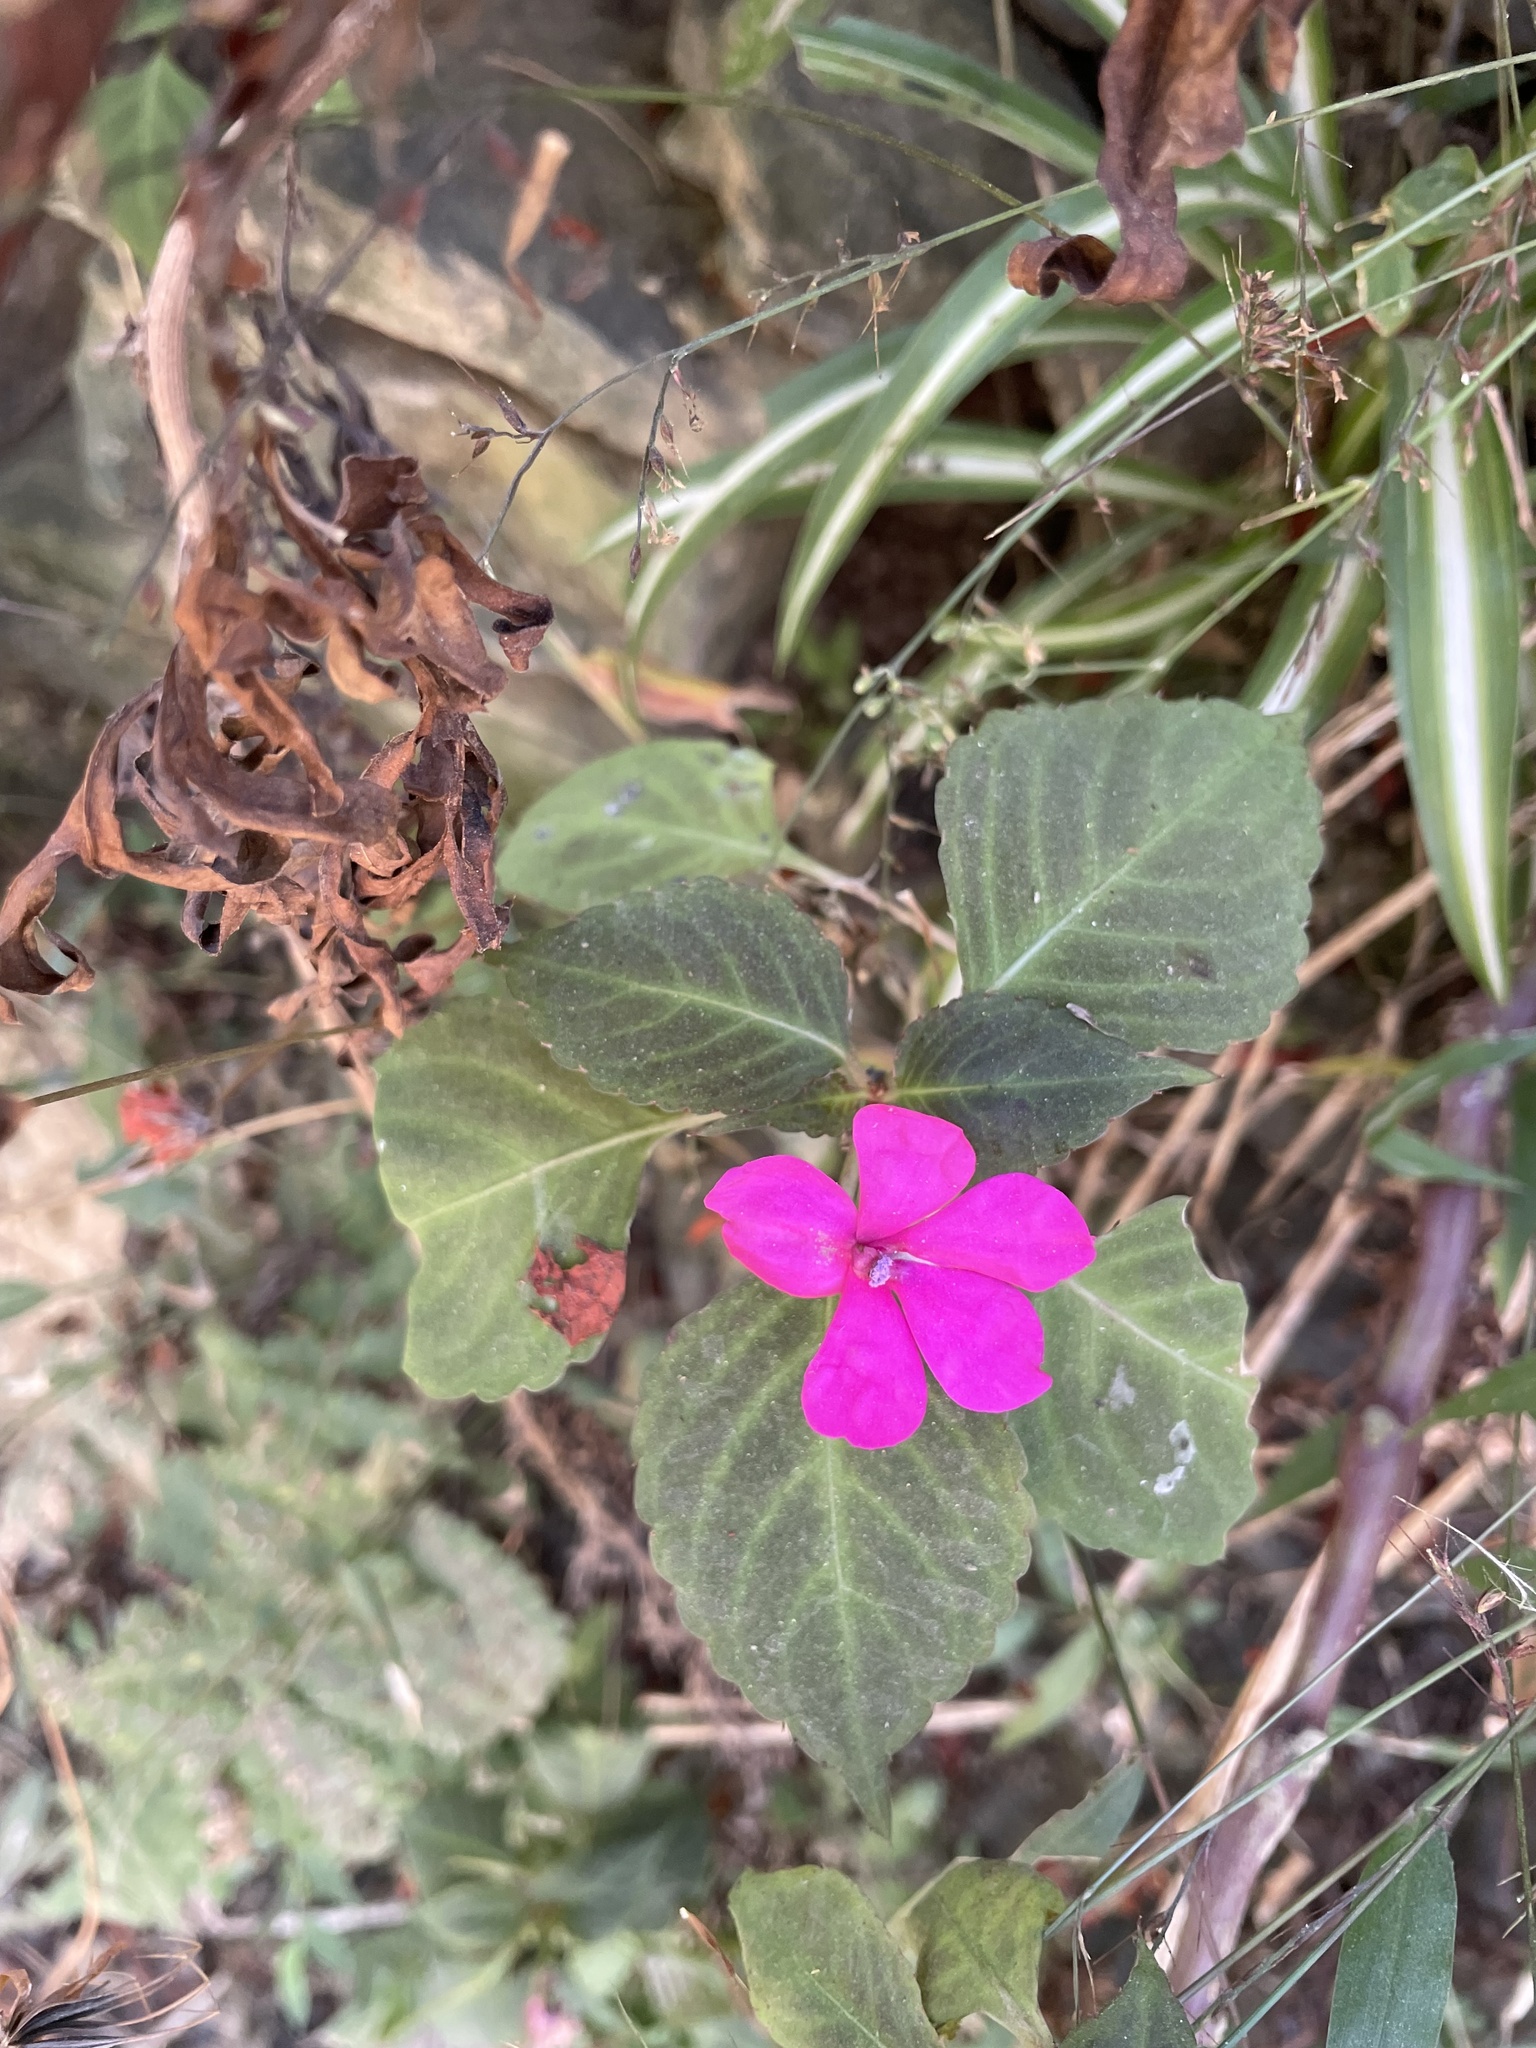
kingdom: Plantae
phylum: Tracheophyta
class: Magnoliopsida
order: Ericales
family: Balsaminaceae
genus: Impatiens
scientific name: Impatiens walleriana
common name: Buzzy lizzy
